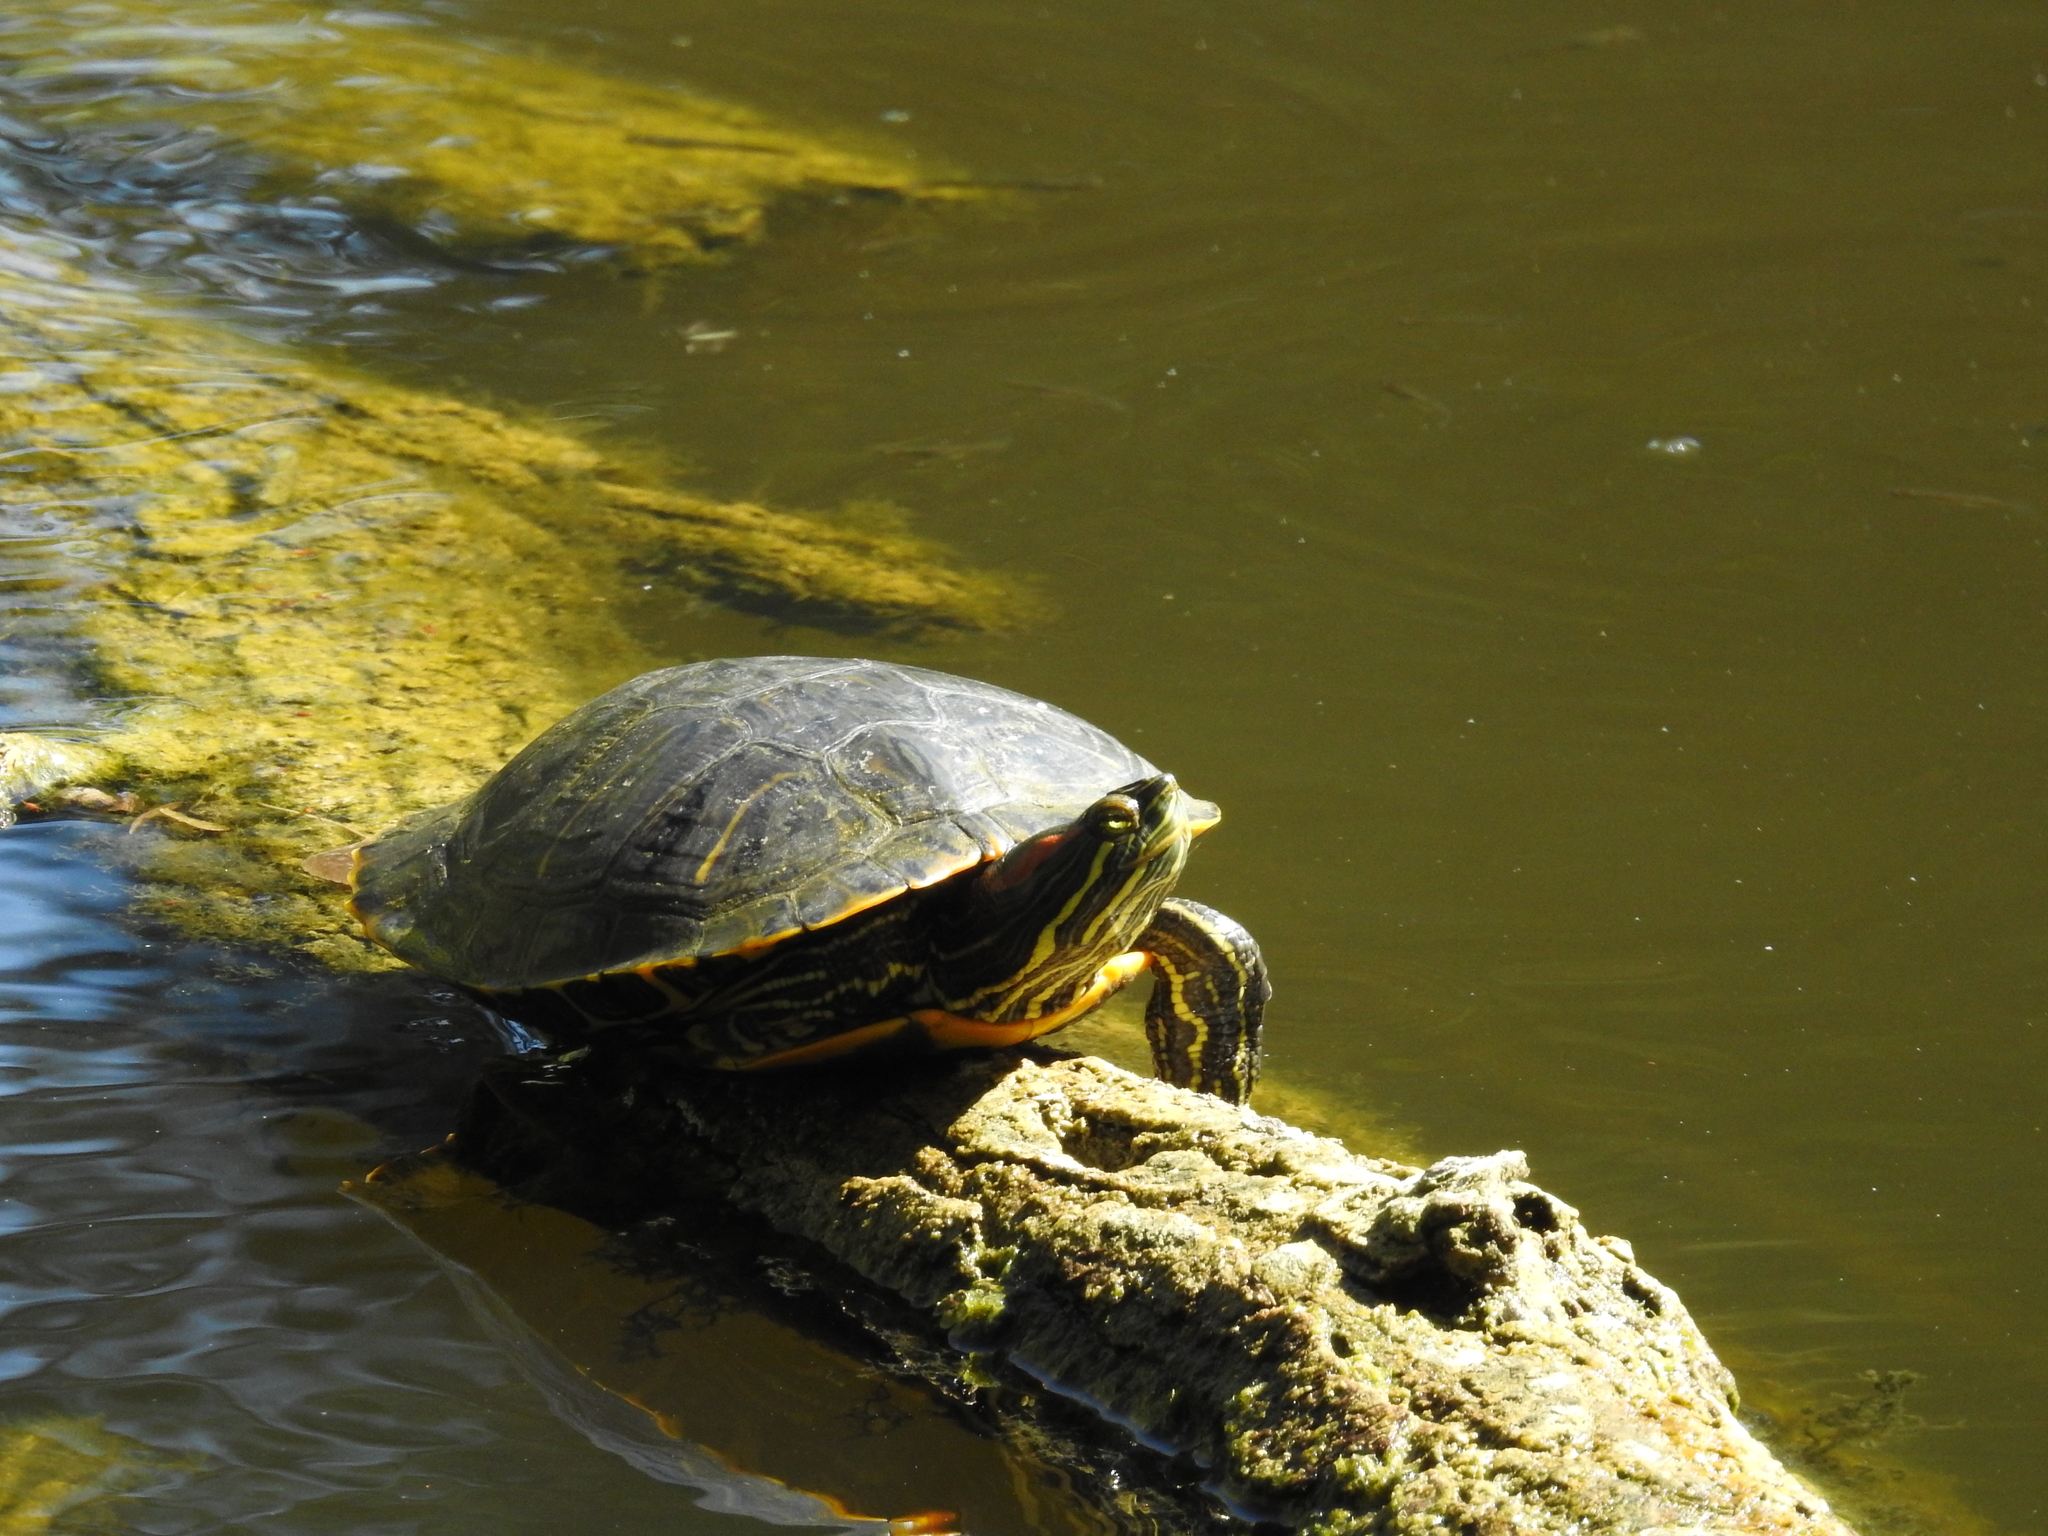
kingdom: Animalia
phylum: Chordata
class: Testudines
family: Emydidae
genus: Trachemys
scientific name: Trachemys scripta
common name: Slider
